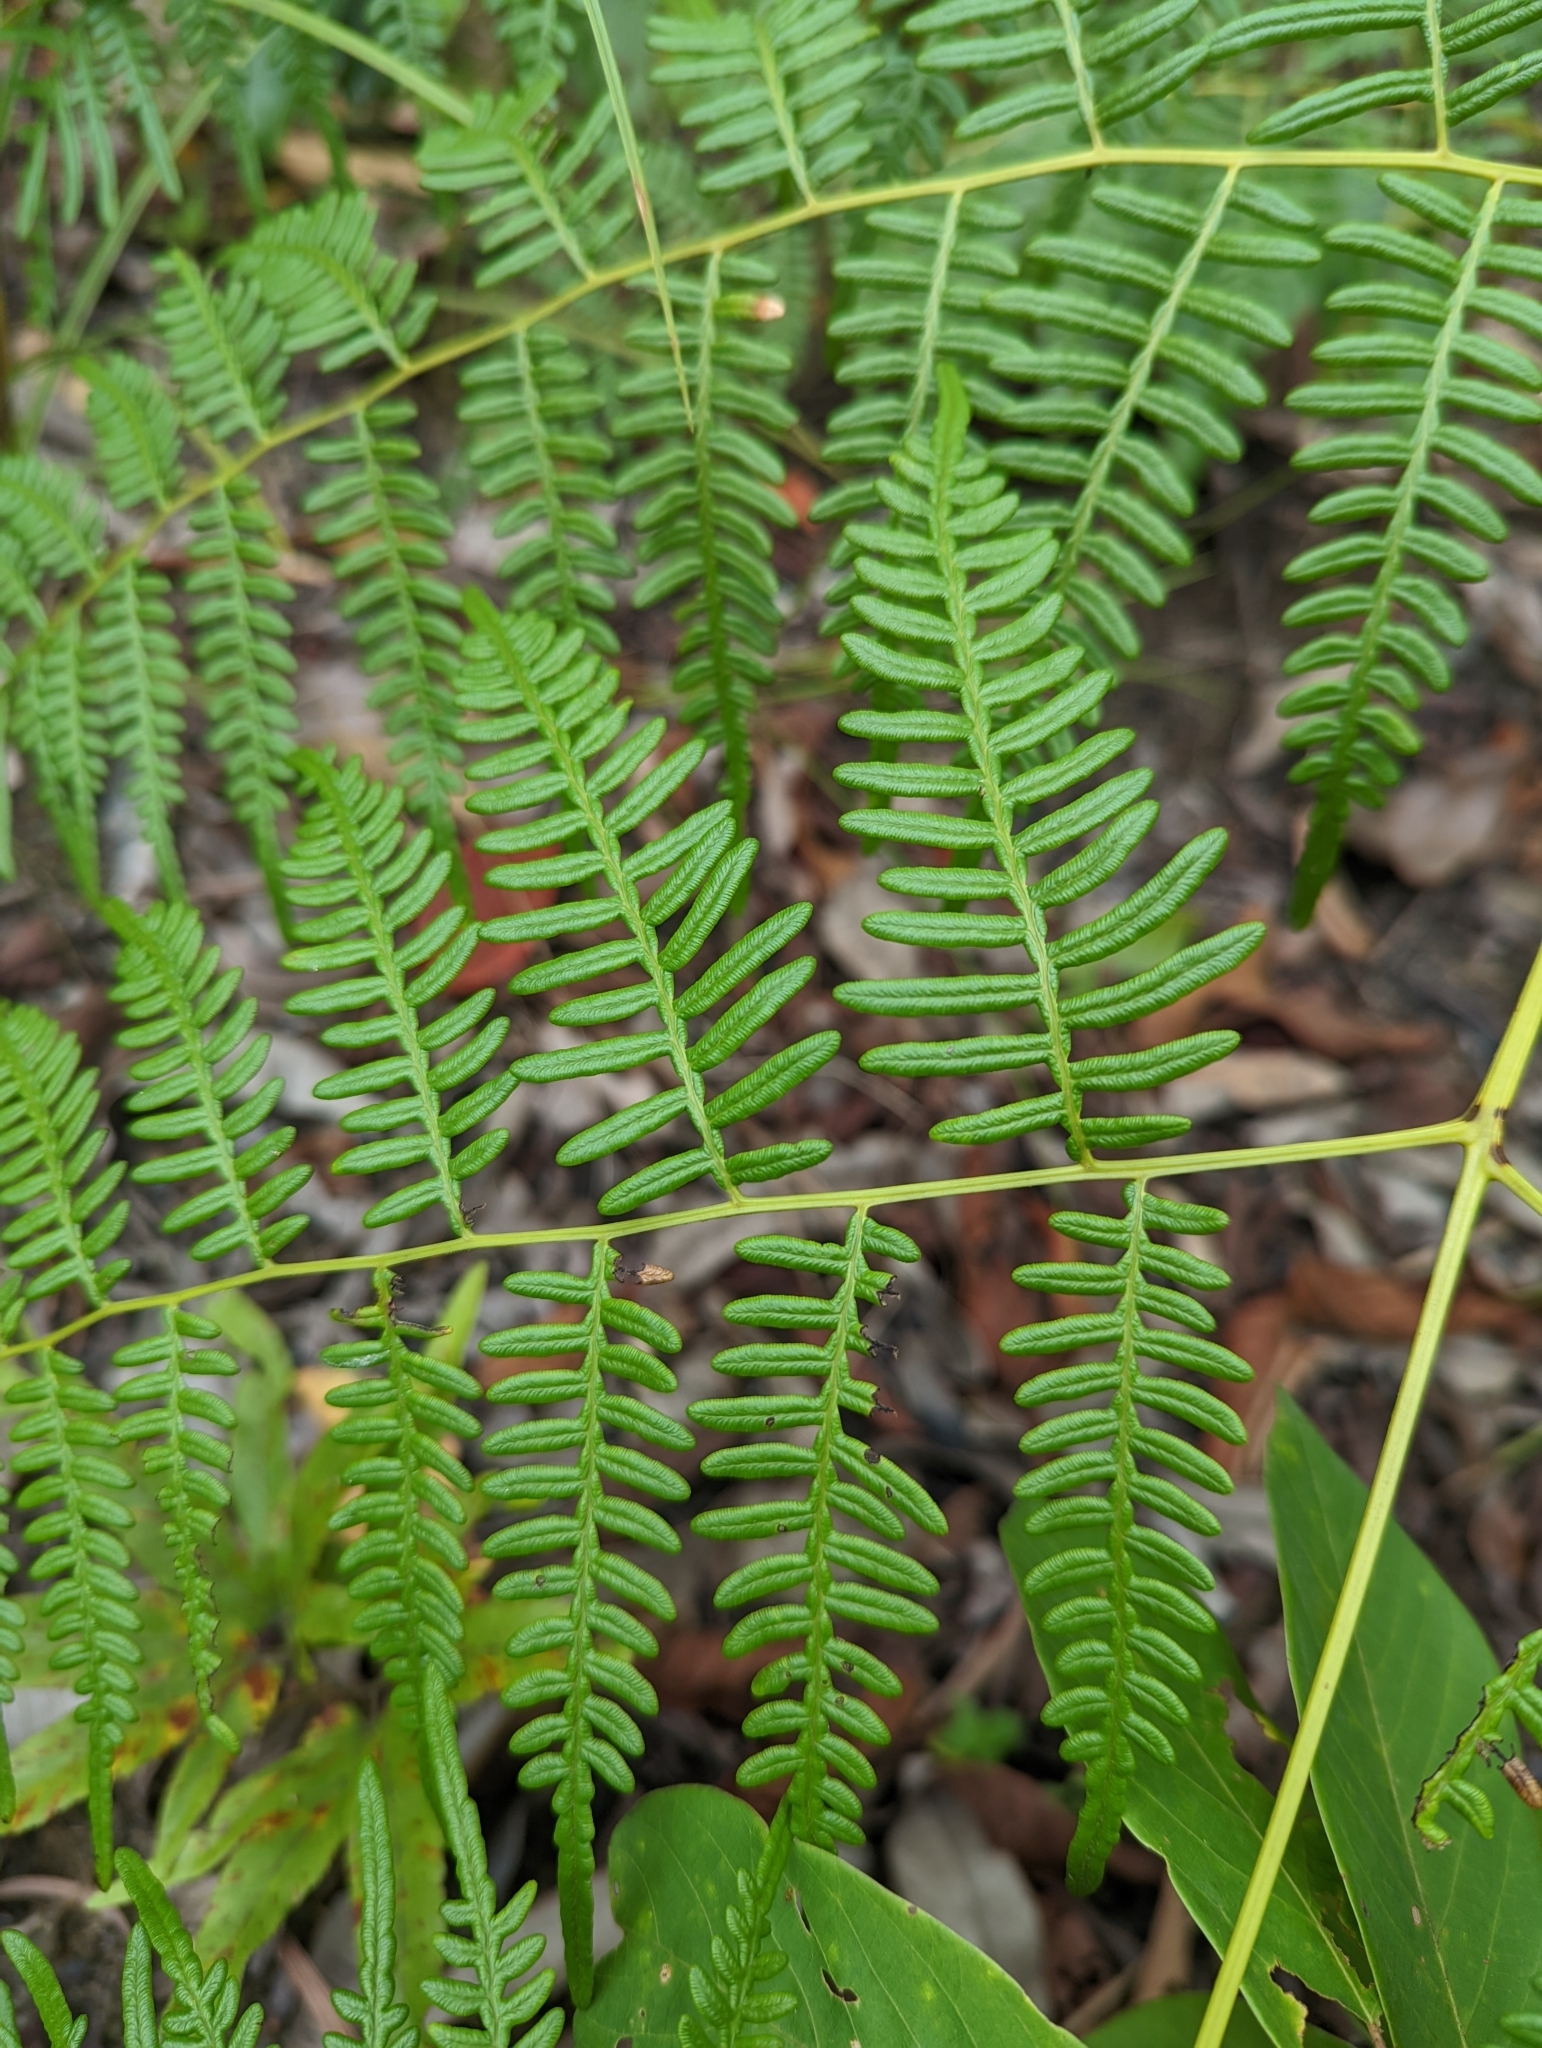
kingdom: Plantae
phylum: Tracheophyta
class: Polypodiopsida
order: Polypodiales
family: Dennstaedtiaceae
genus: Pteridium
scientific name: Pteridium esculentum
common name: Bracken fern
